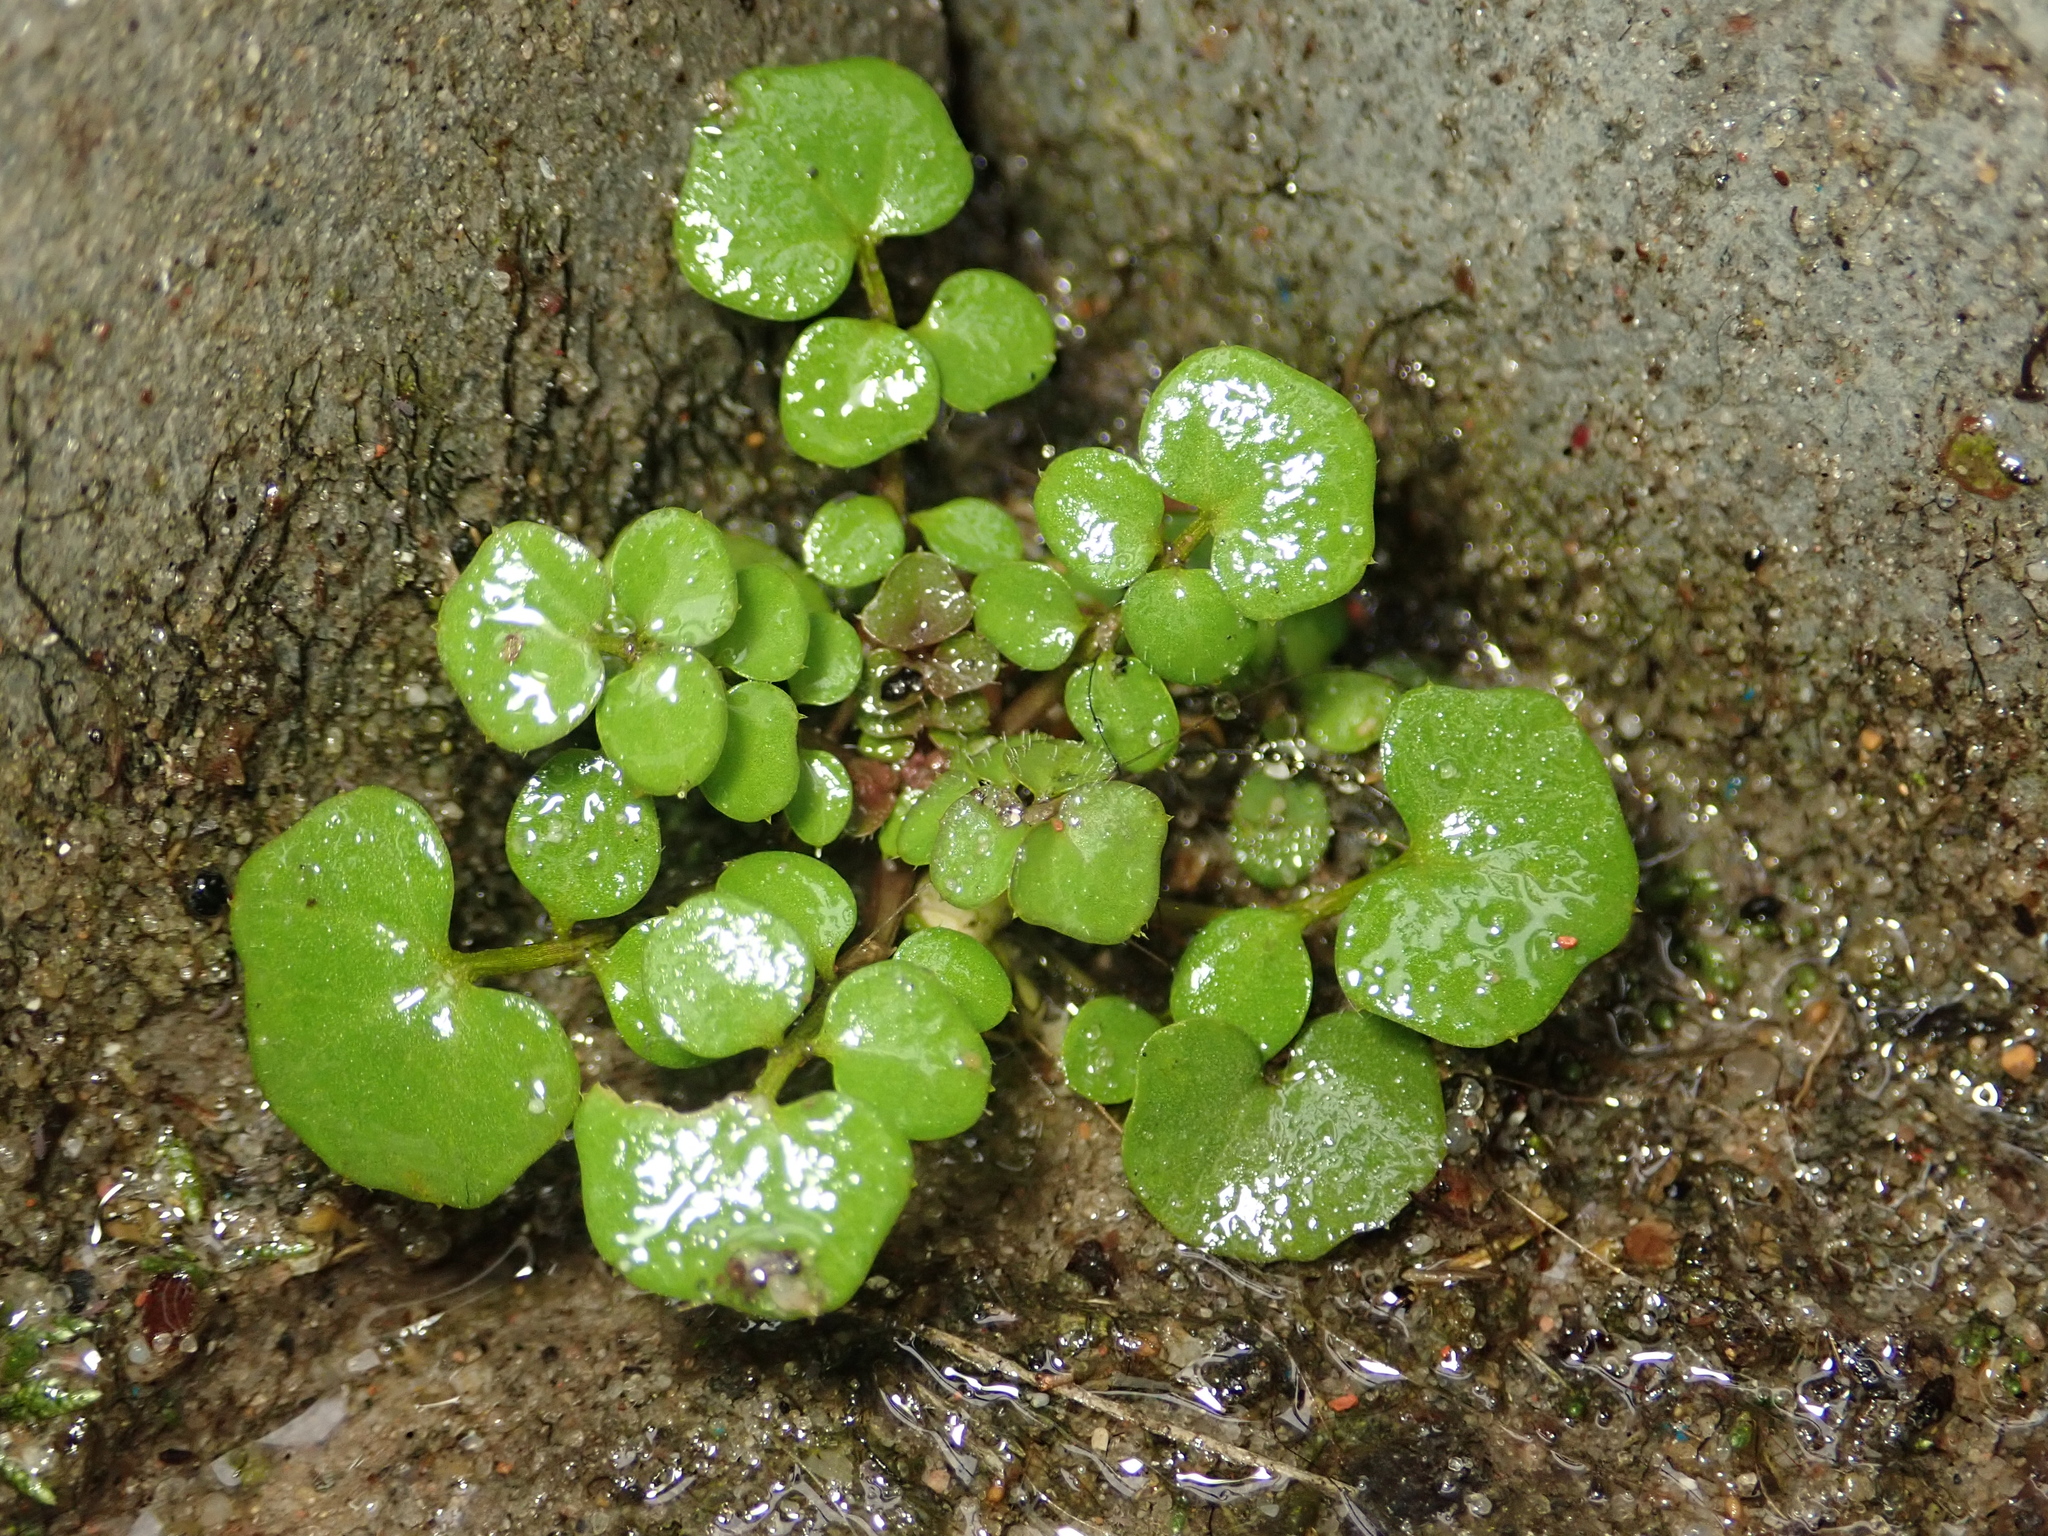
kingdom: Plantae
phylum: Tracheophyta
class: Magnoliopsida
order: Brassicales
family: Brassicaceae
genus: Cardamine
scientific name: Cardamine hirsuta
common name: Hairy bittercress
